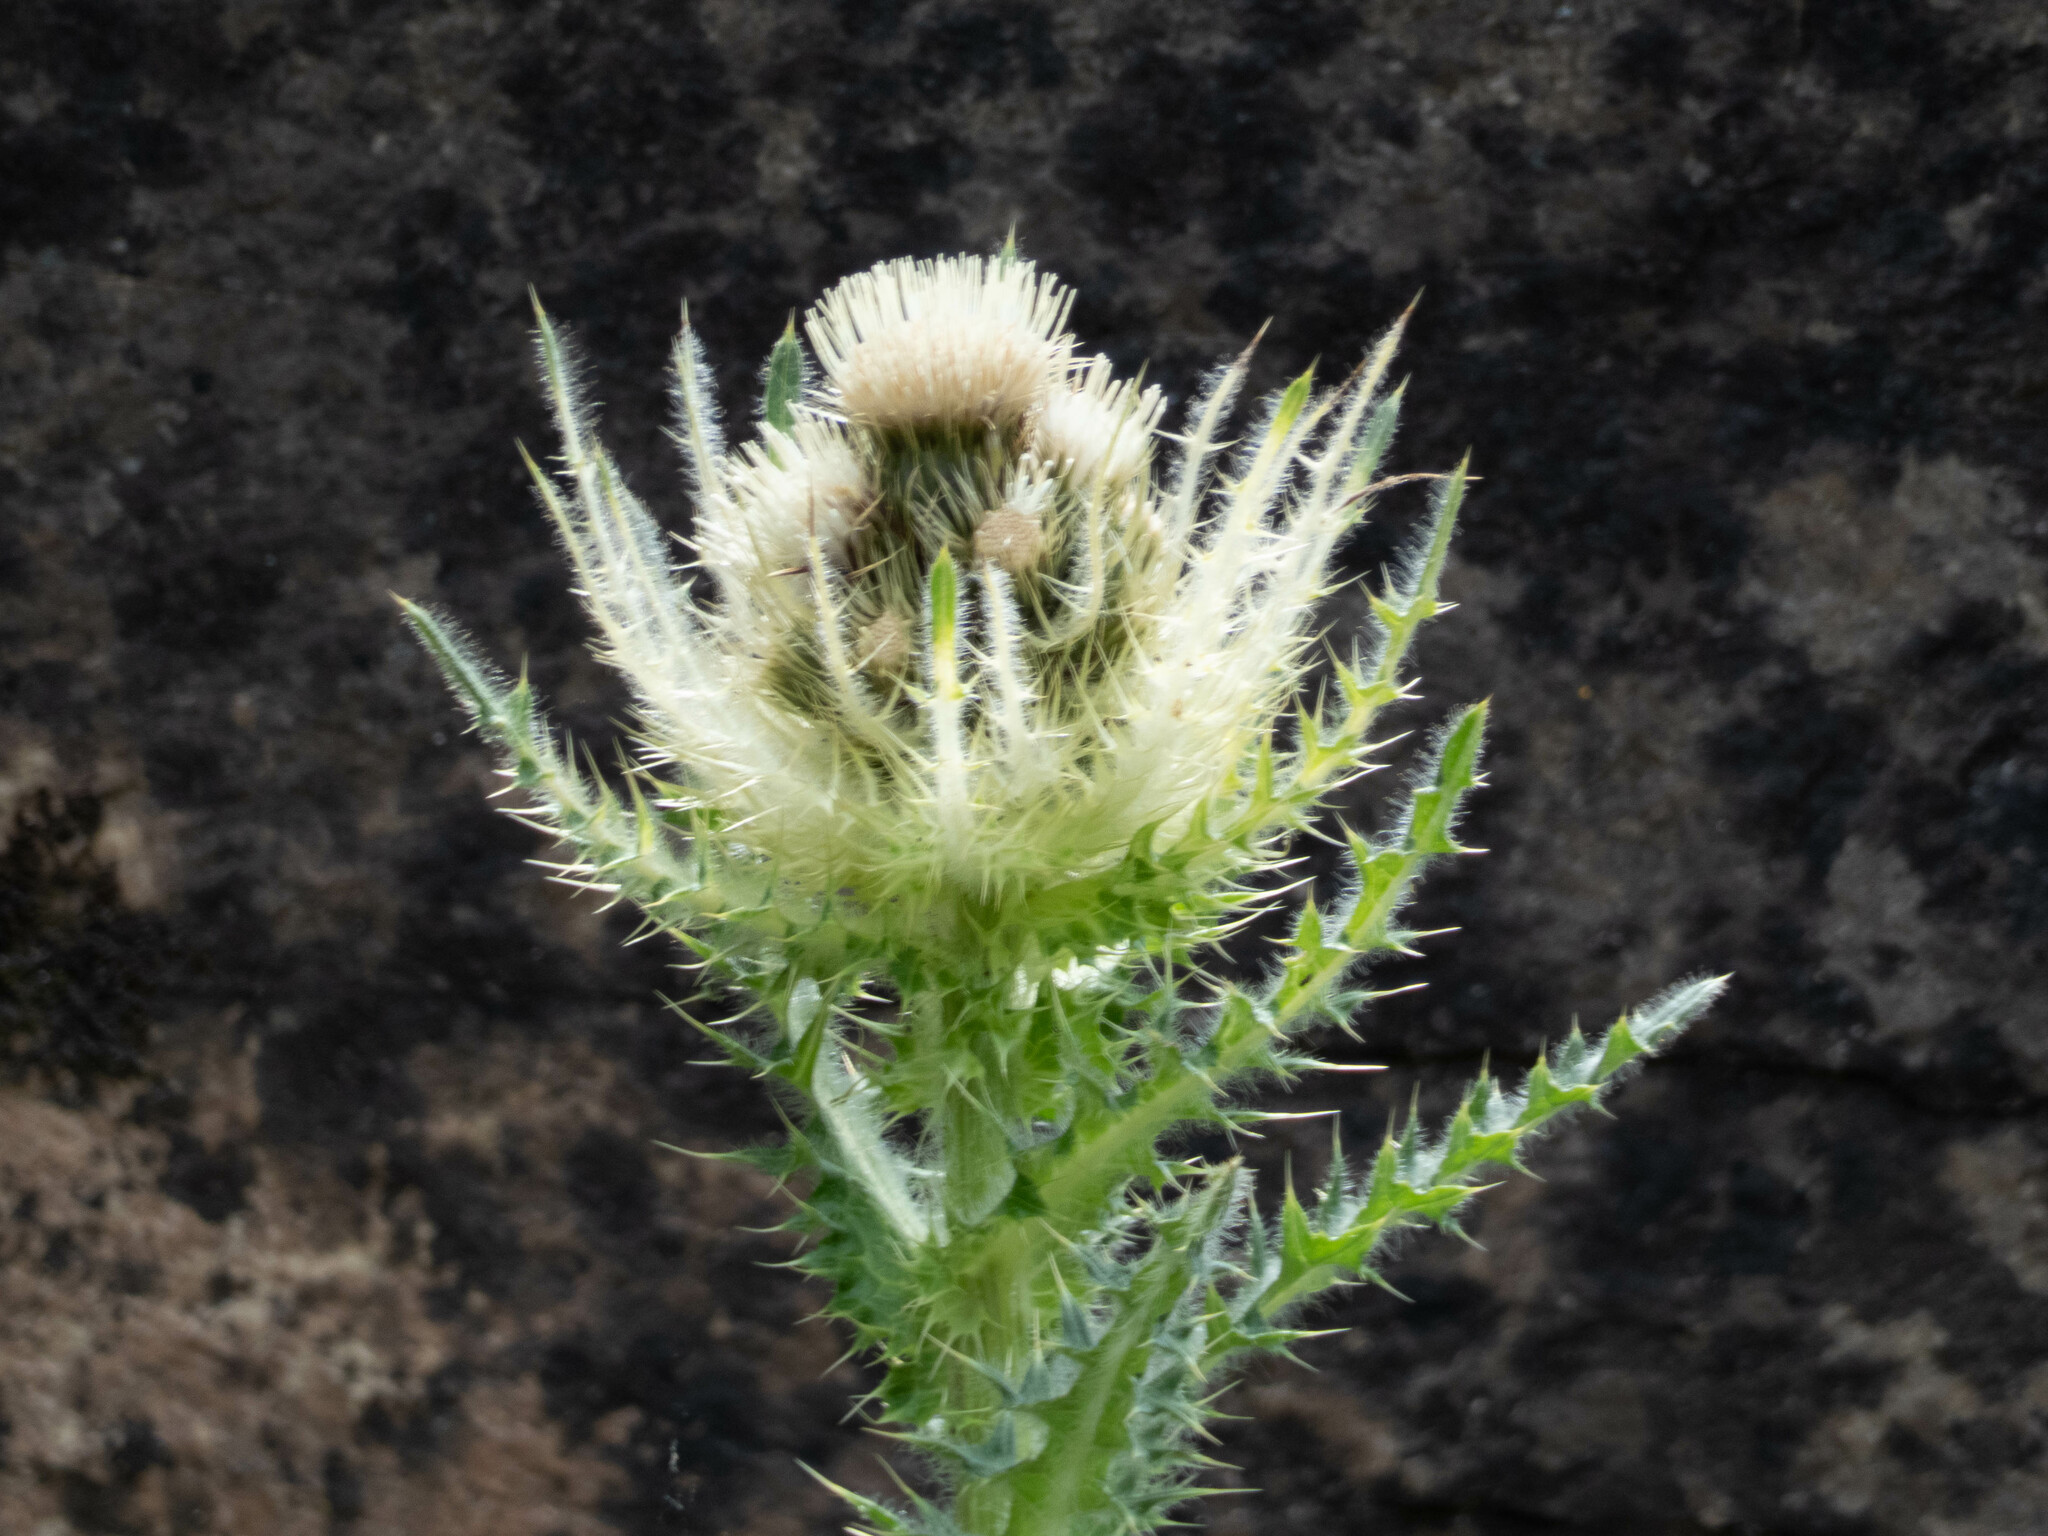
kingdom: Plantae
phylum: Tracheophyta
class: Magnoliopsida
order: Asterales
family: Asteraceae
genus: Cirsium
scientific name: Cirsium spinosissimum
